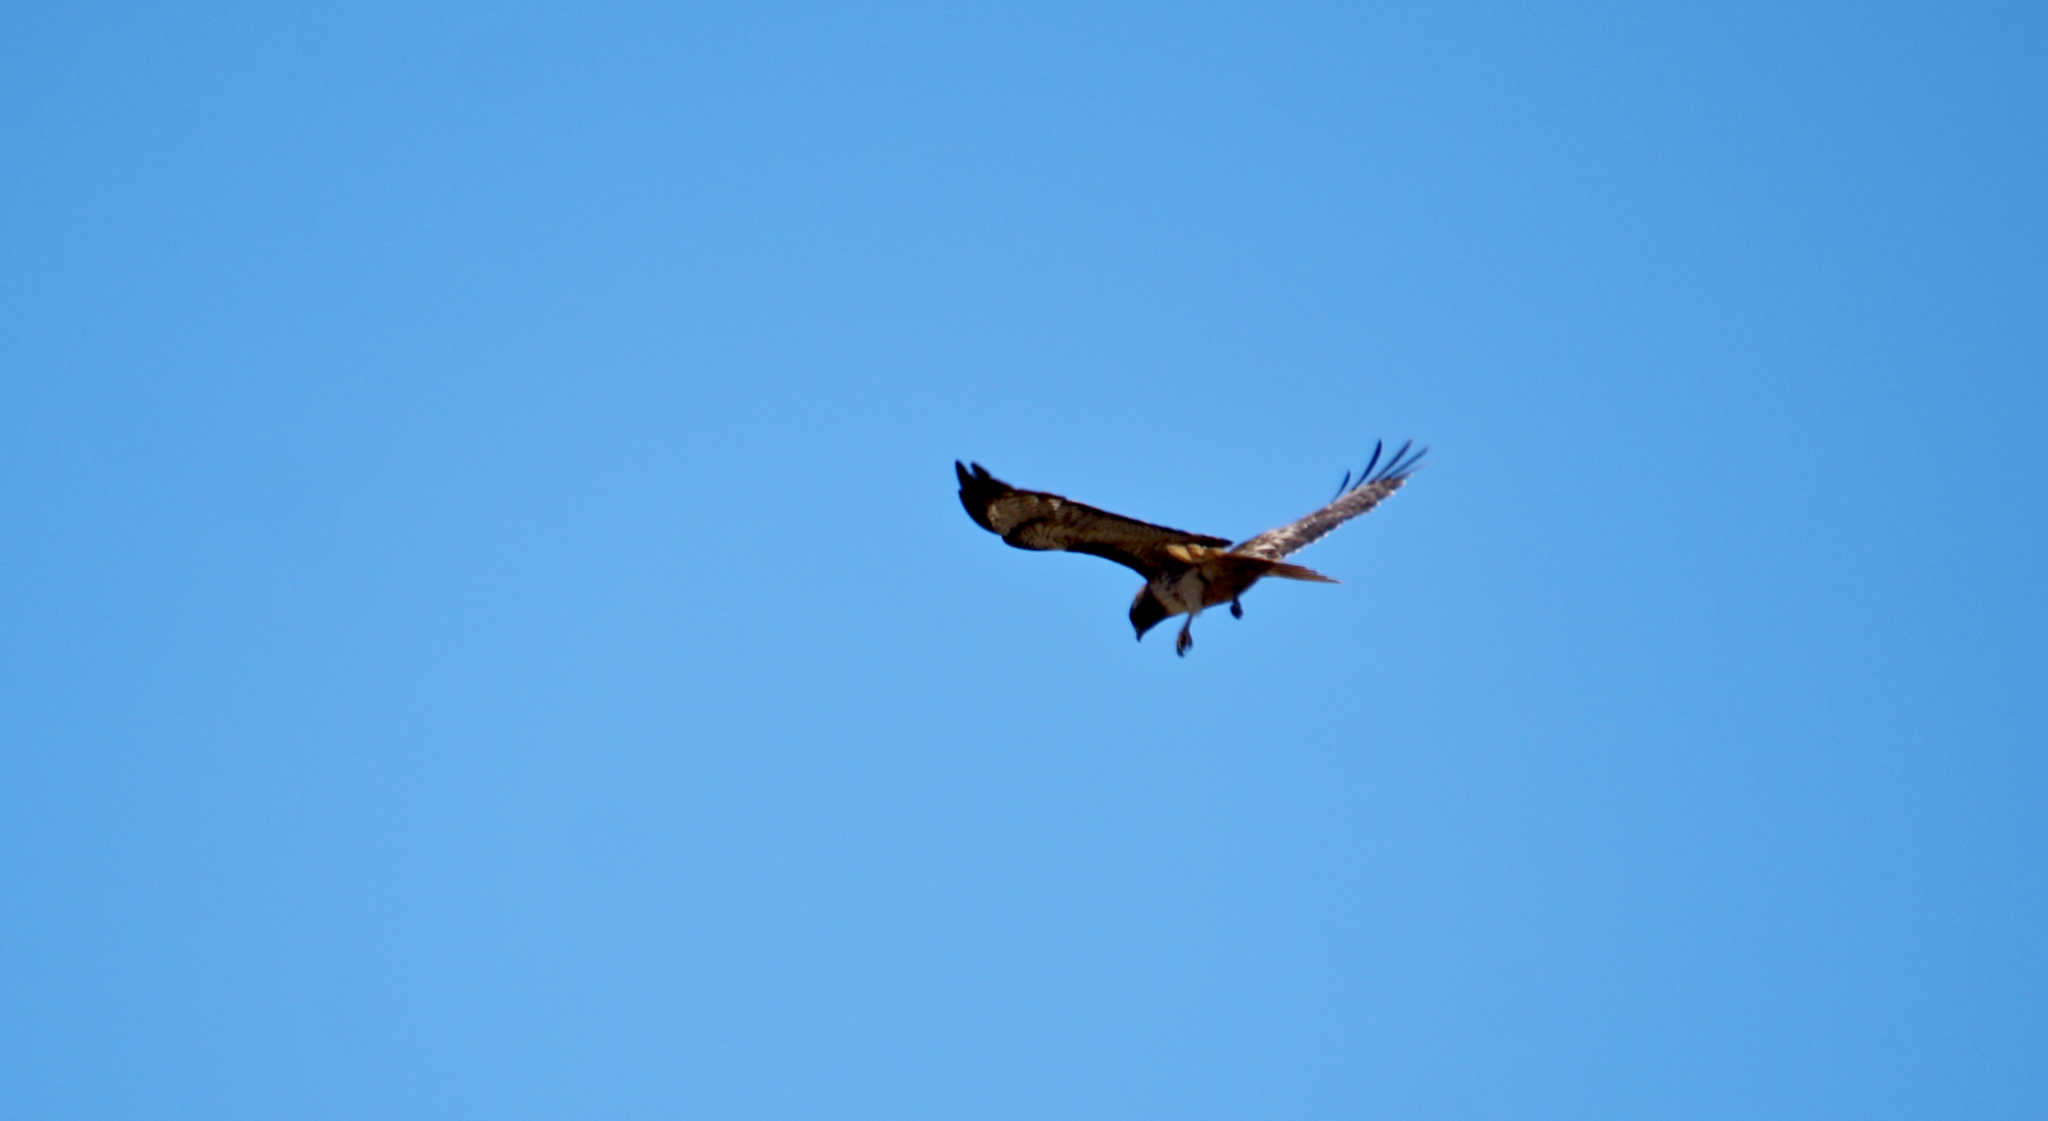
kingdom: Animalia
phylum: Chordata
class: Aves
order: Accipitriformes
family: Accipitridae
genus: Buteo
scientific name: Buteo jamaicensis
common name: Red-tailed hawk
